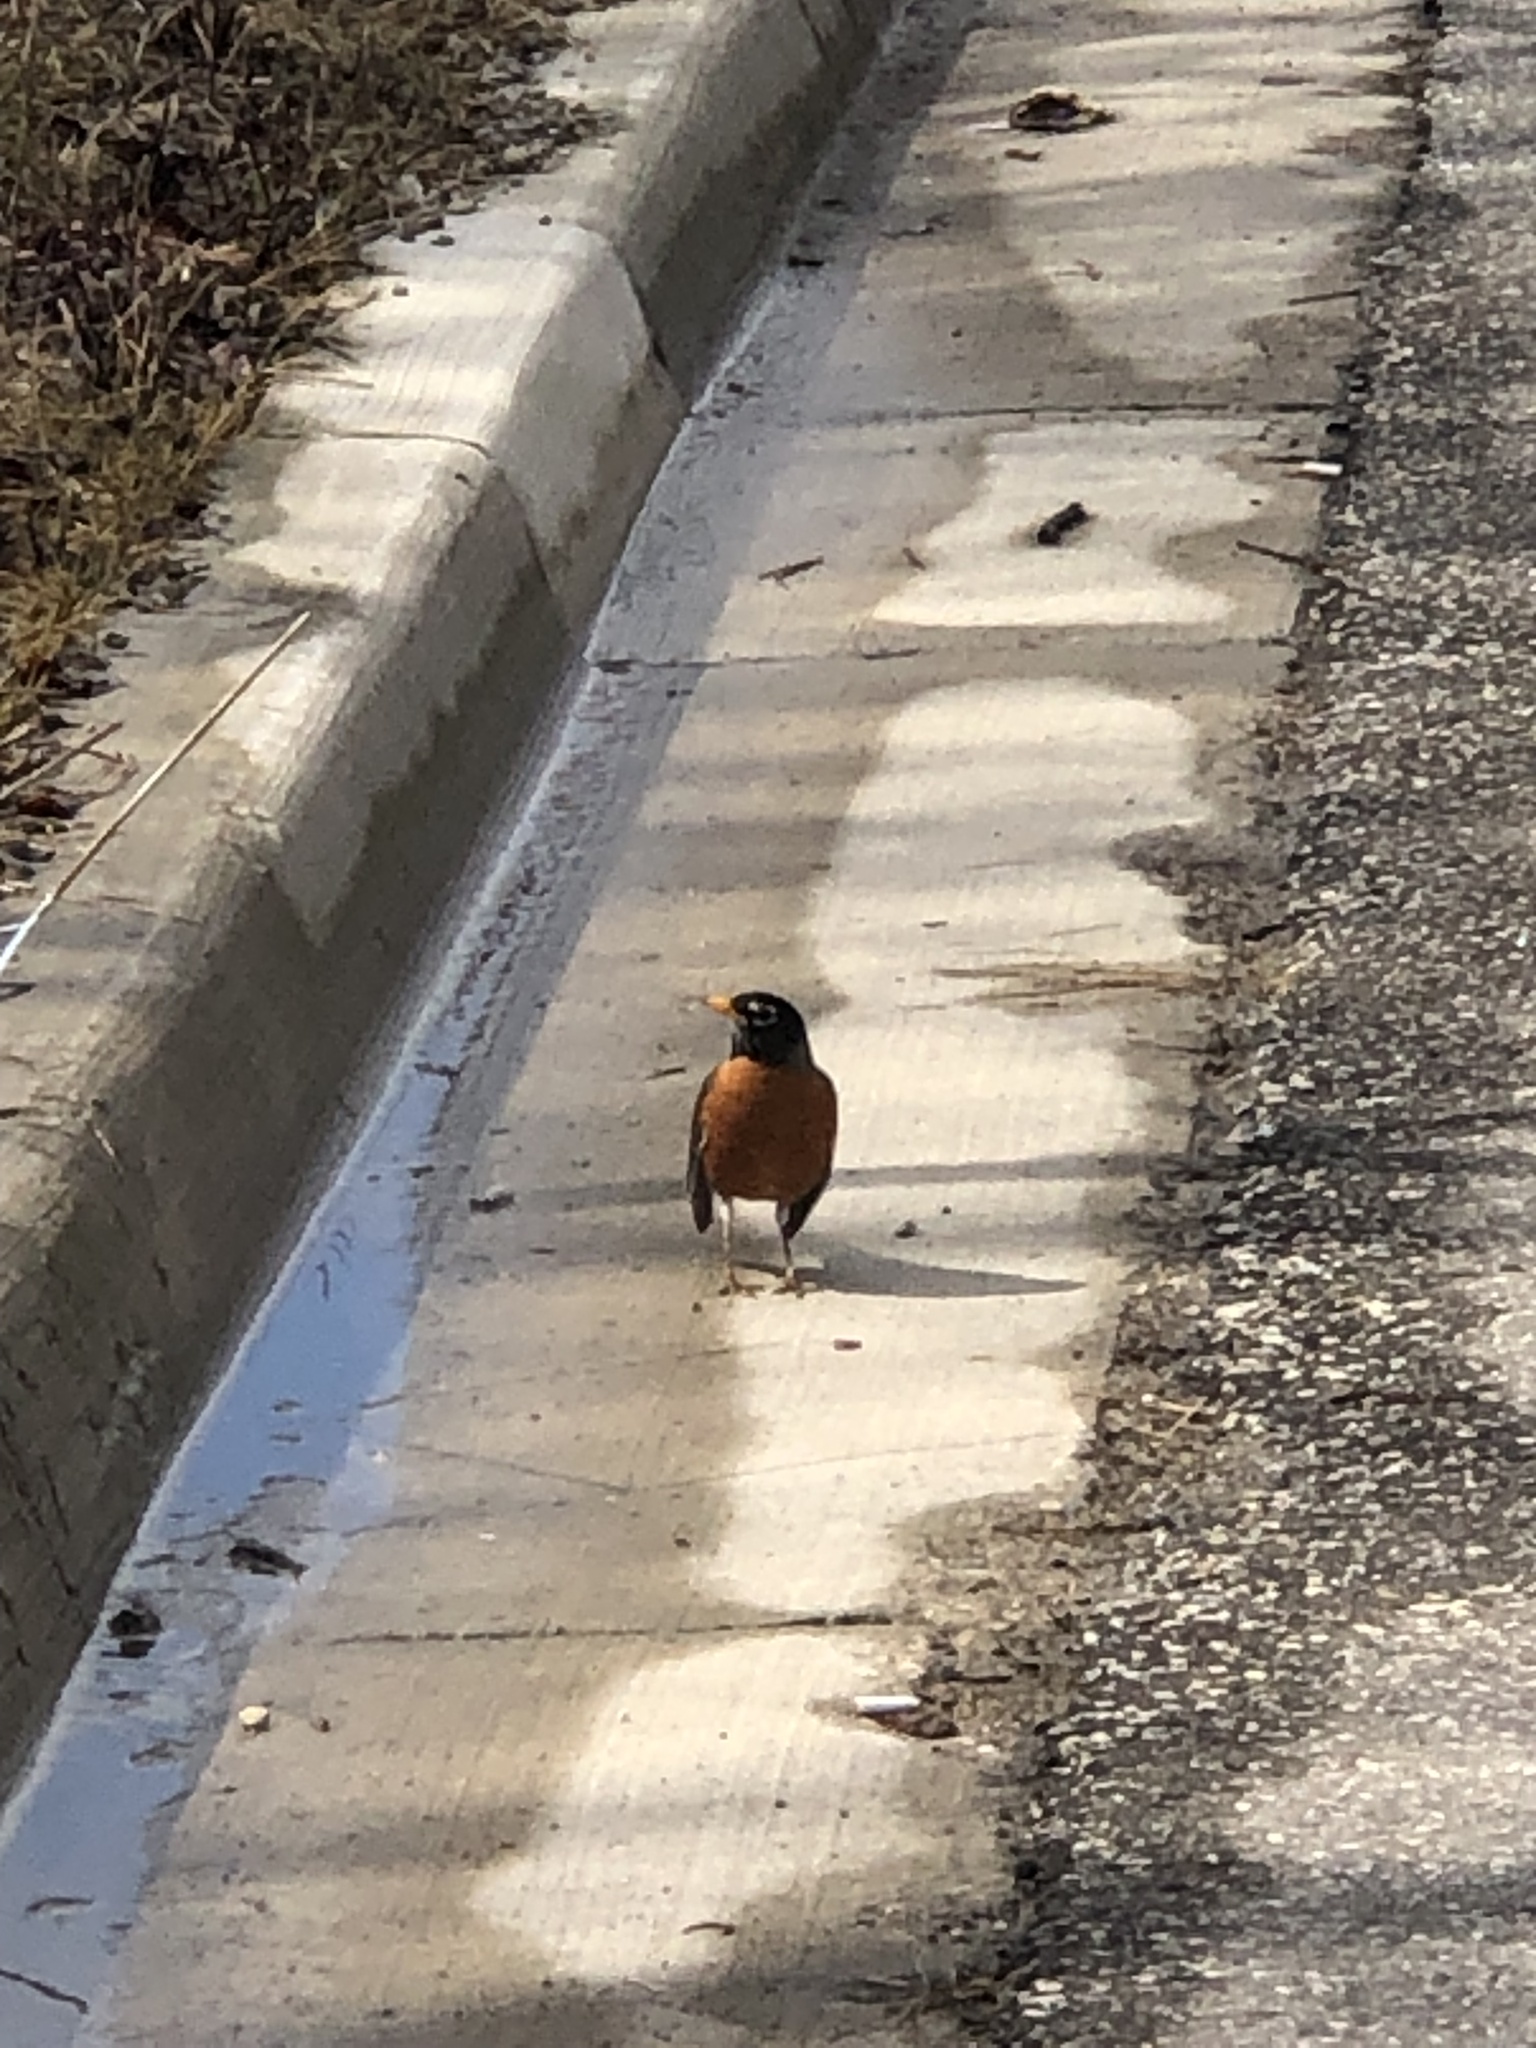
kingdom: Animalia
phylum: Chordata
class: Aves
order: Passeriformes
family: Turdidae
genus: Turdus
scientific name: Turdus migratorius
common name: American robin
